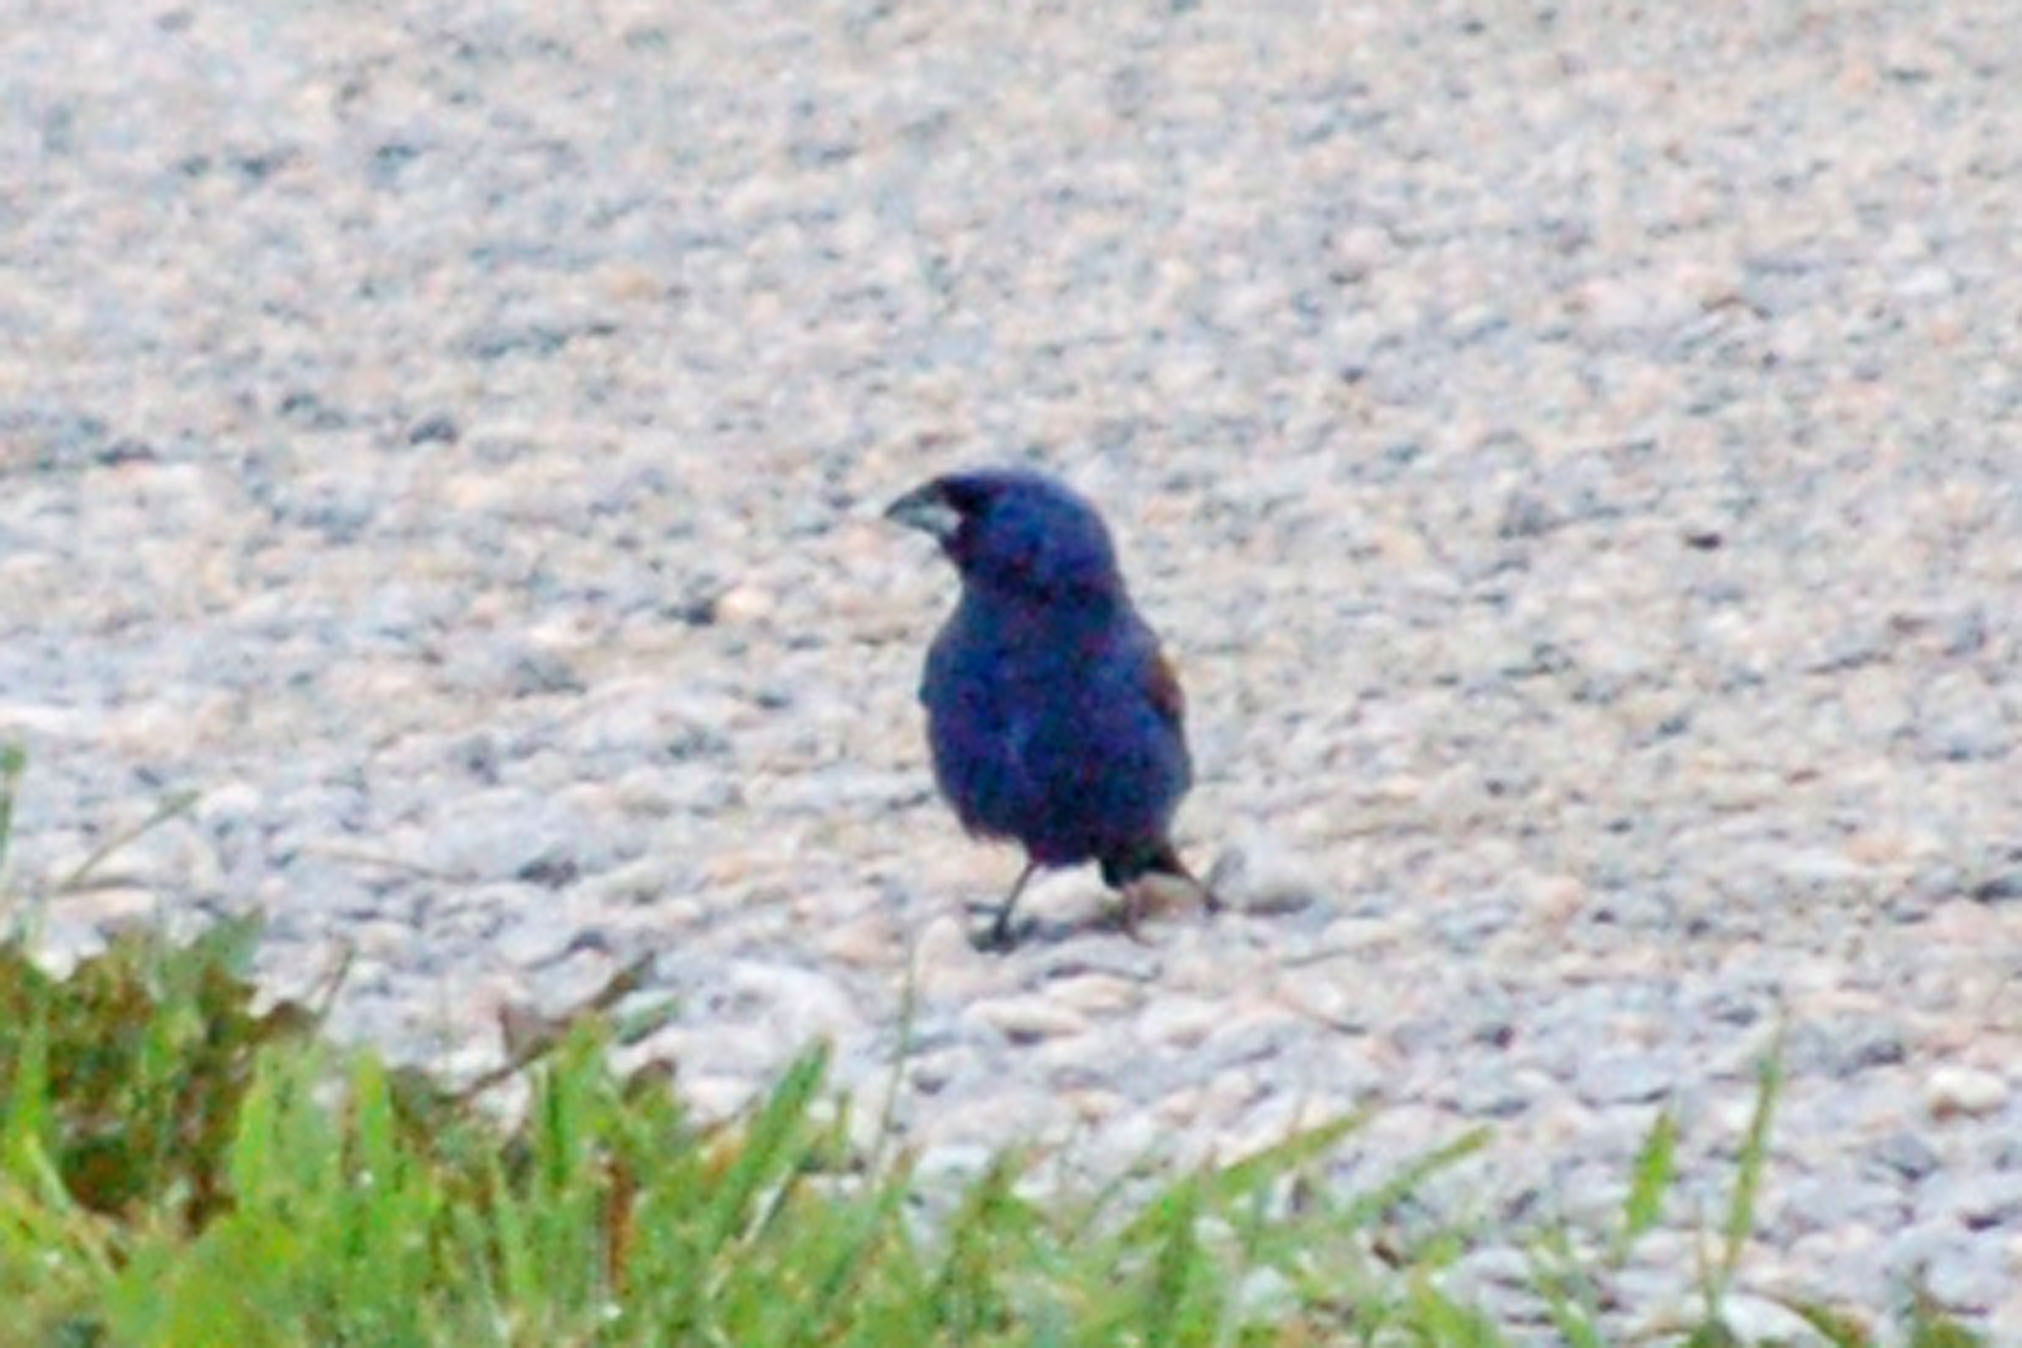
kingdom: Animalia
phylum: Chordata
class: Aves
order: Passeriformes
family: Cardinalidae
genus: Passerina
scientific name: Passerina caerulea
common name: Blue grosbeak
